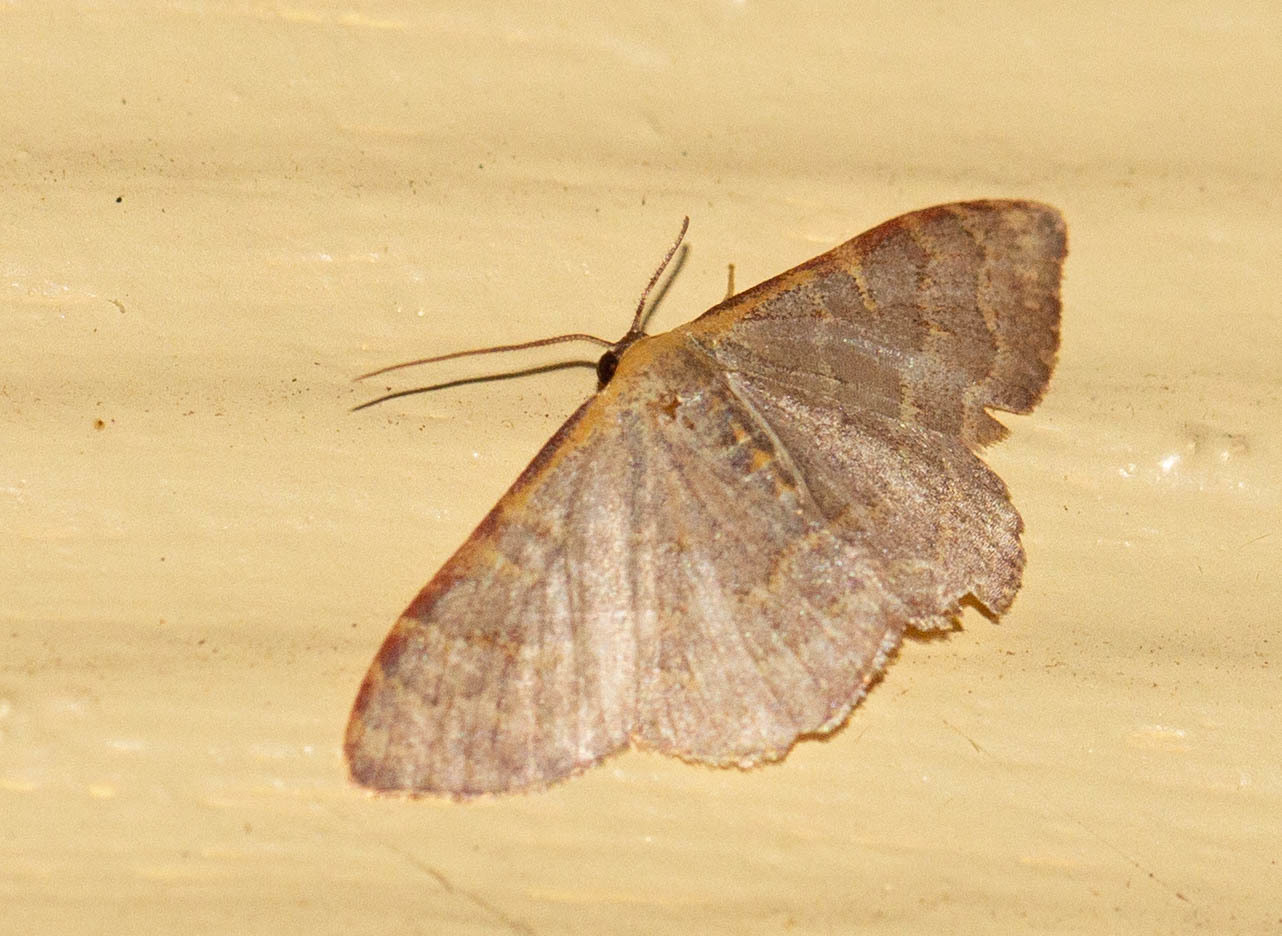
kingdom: Animalia
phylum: Arthropoda
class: Insecta
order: Lepidoptera
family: Geometridae
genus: Leptostales
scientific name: Leptostales pannaria
